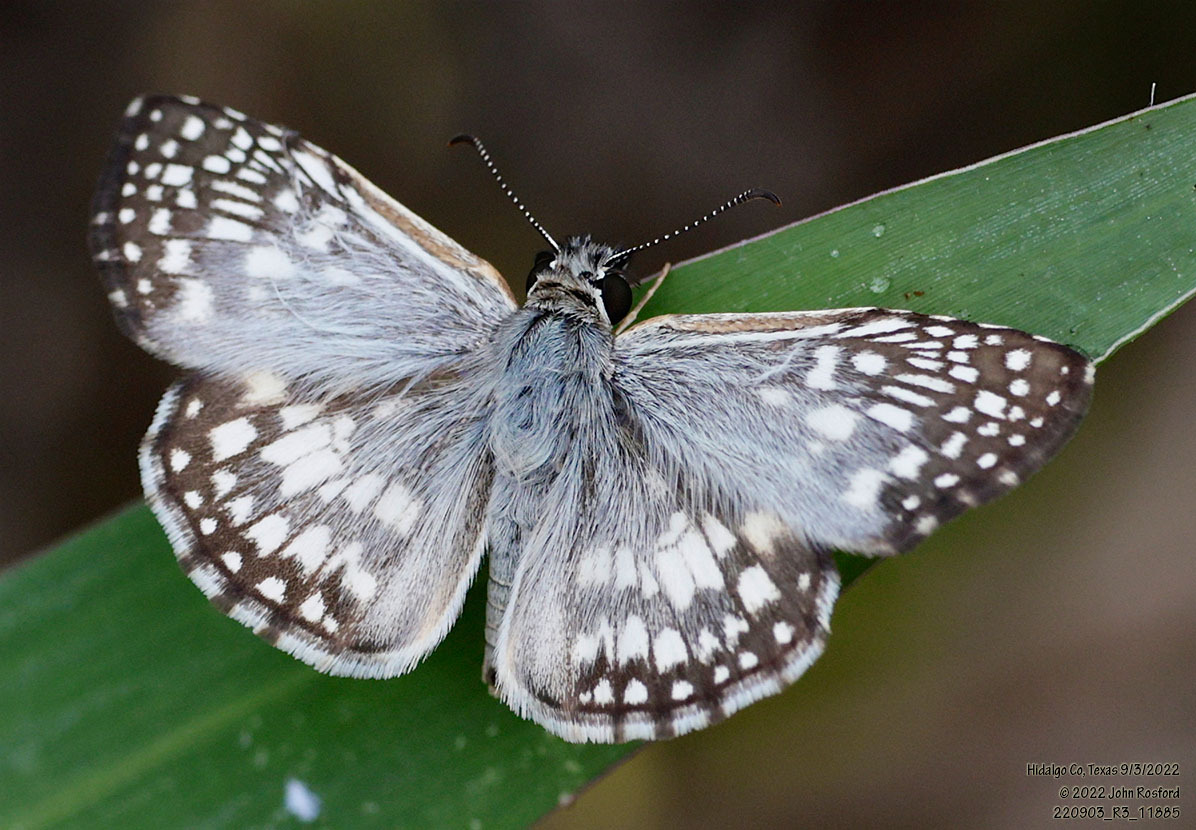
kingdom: Animalia
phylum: Arthropoda
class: Insecta
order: Lepidoptera
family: Hesperiidae
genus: Pyrgus
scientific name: Pyrgus oileus
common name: Tropical checkered-skipper
